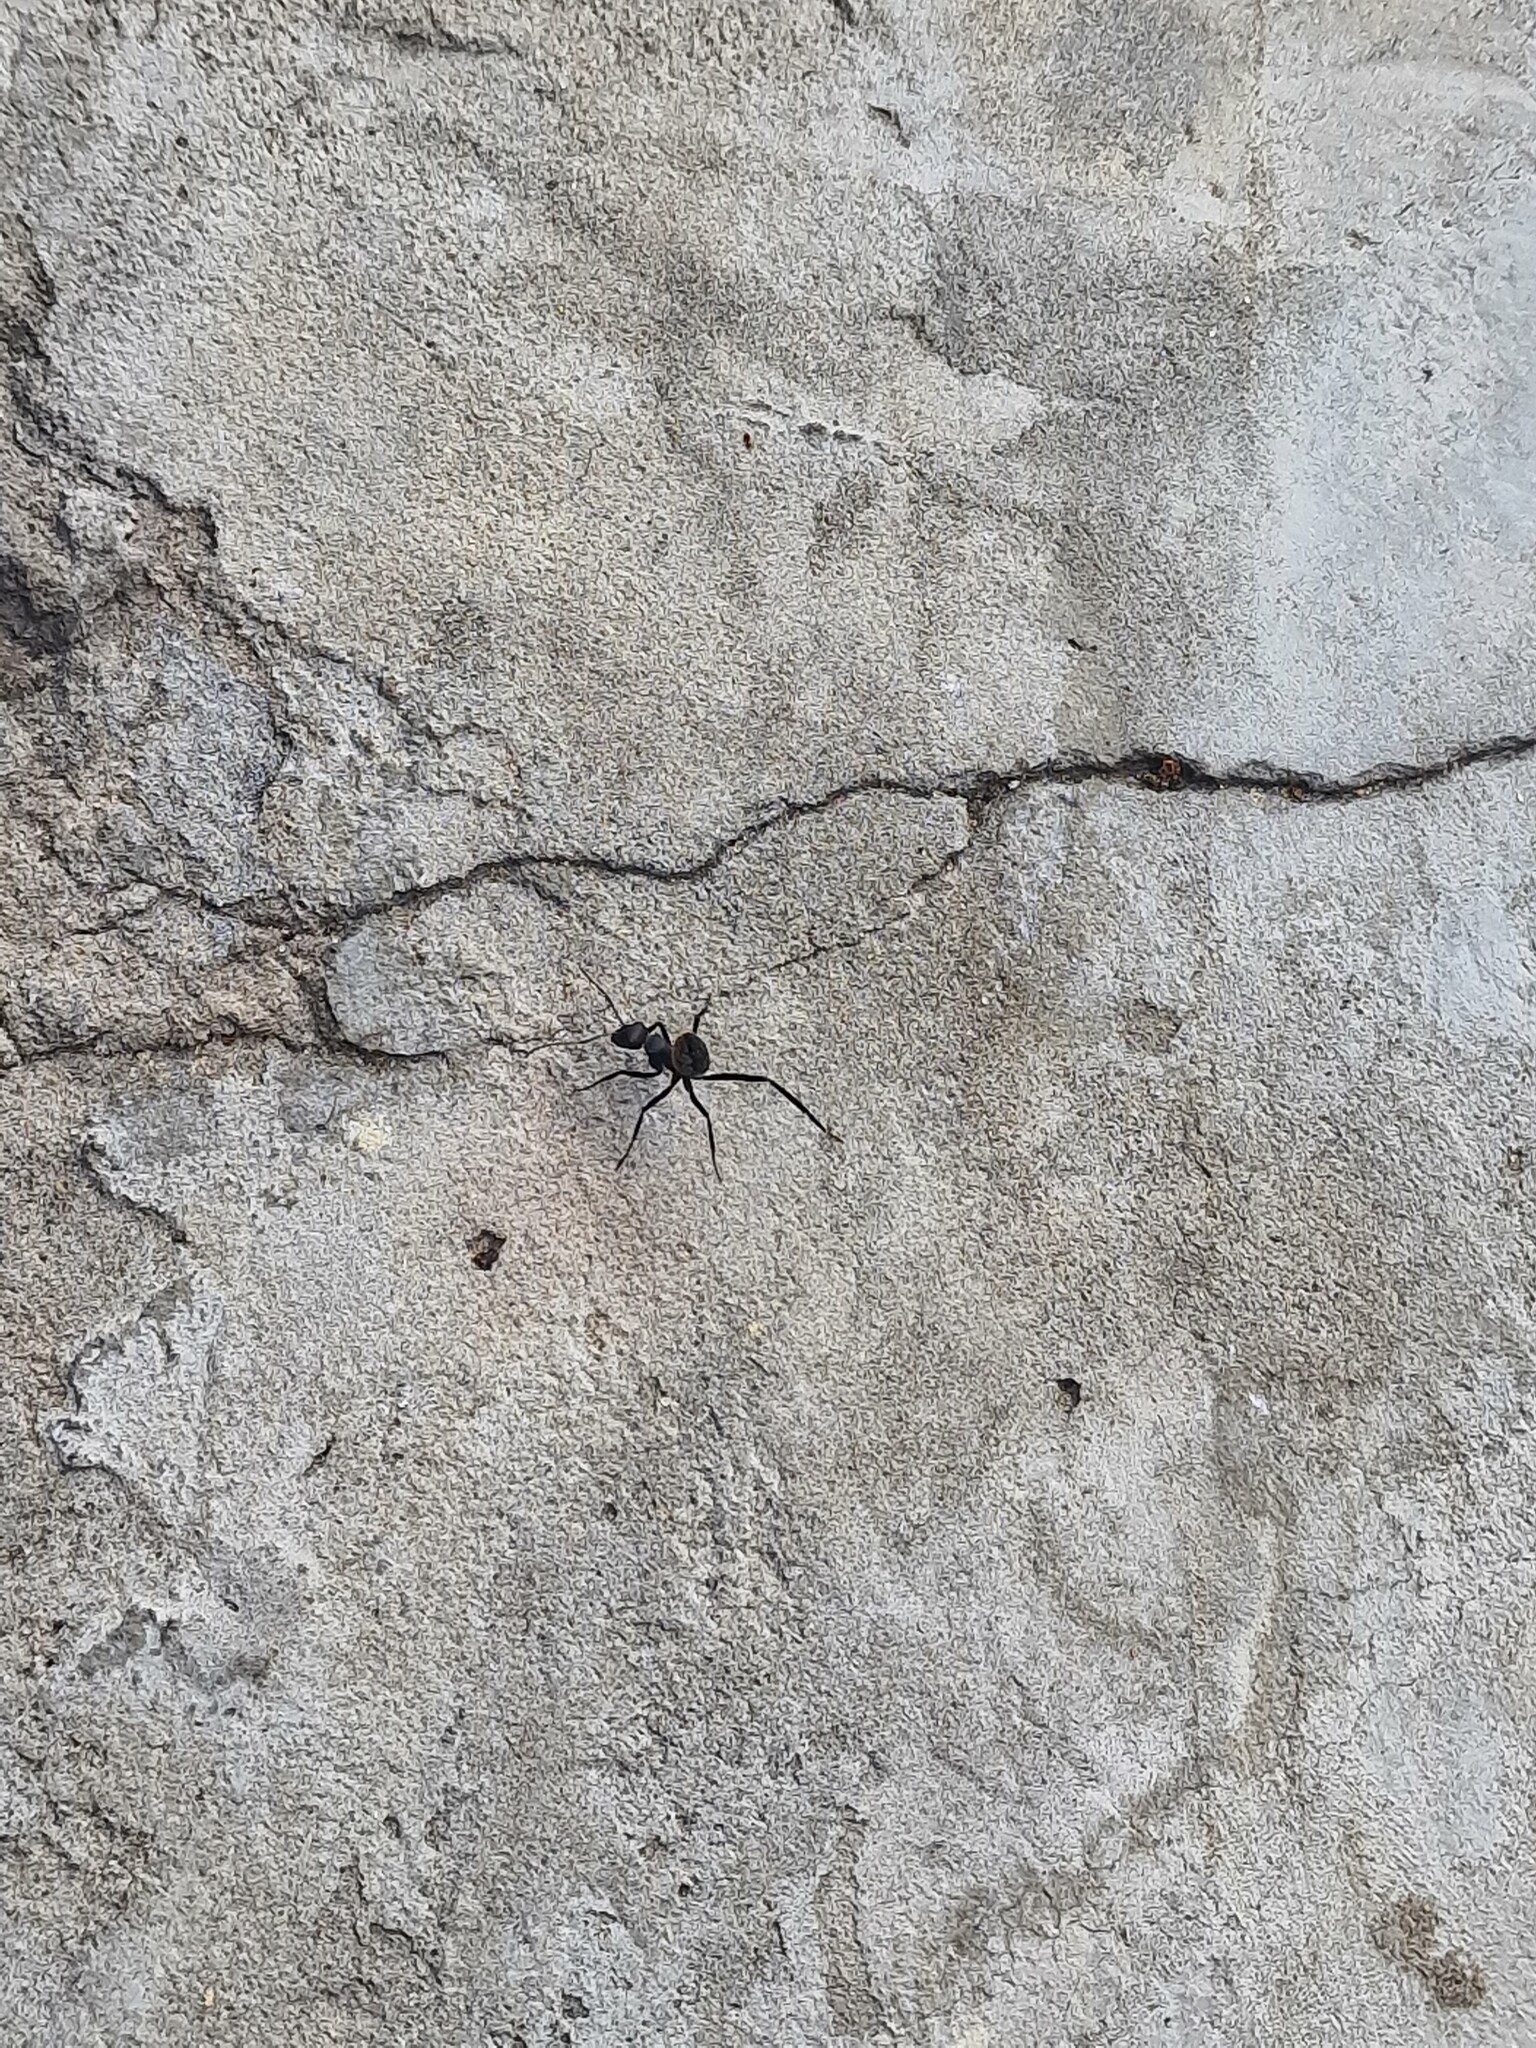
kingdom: Animalia
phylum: Arthropoda
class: Insecta
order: Hymenoptera
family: Formicidae
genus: Camponotus
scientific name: Camponotus fulvopilosus
